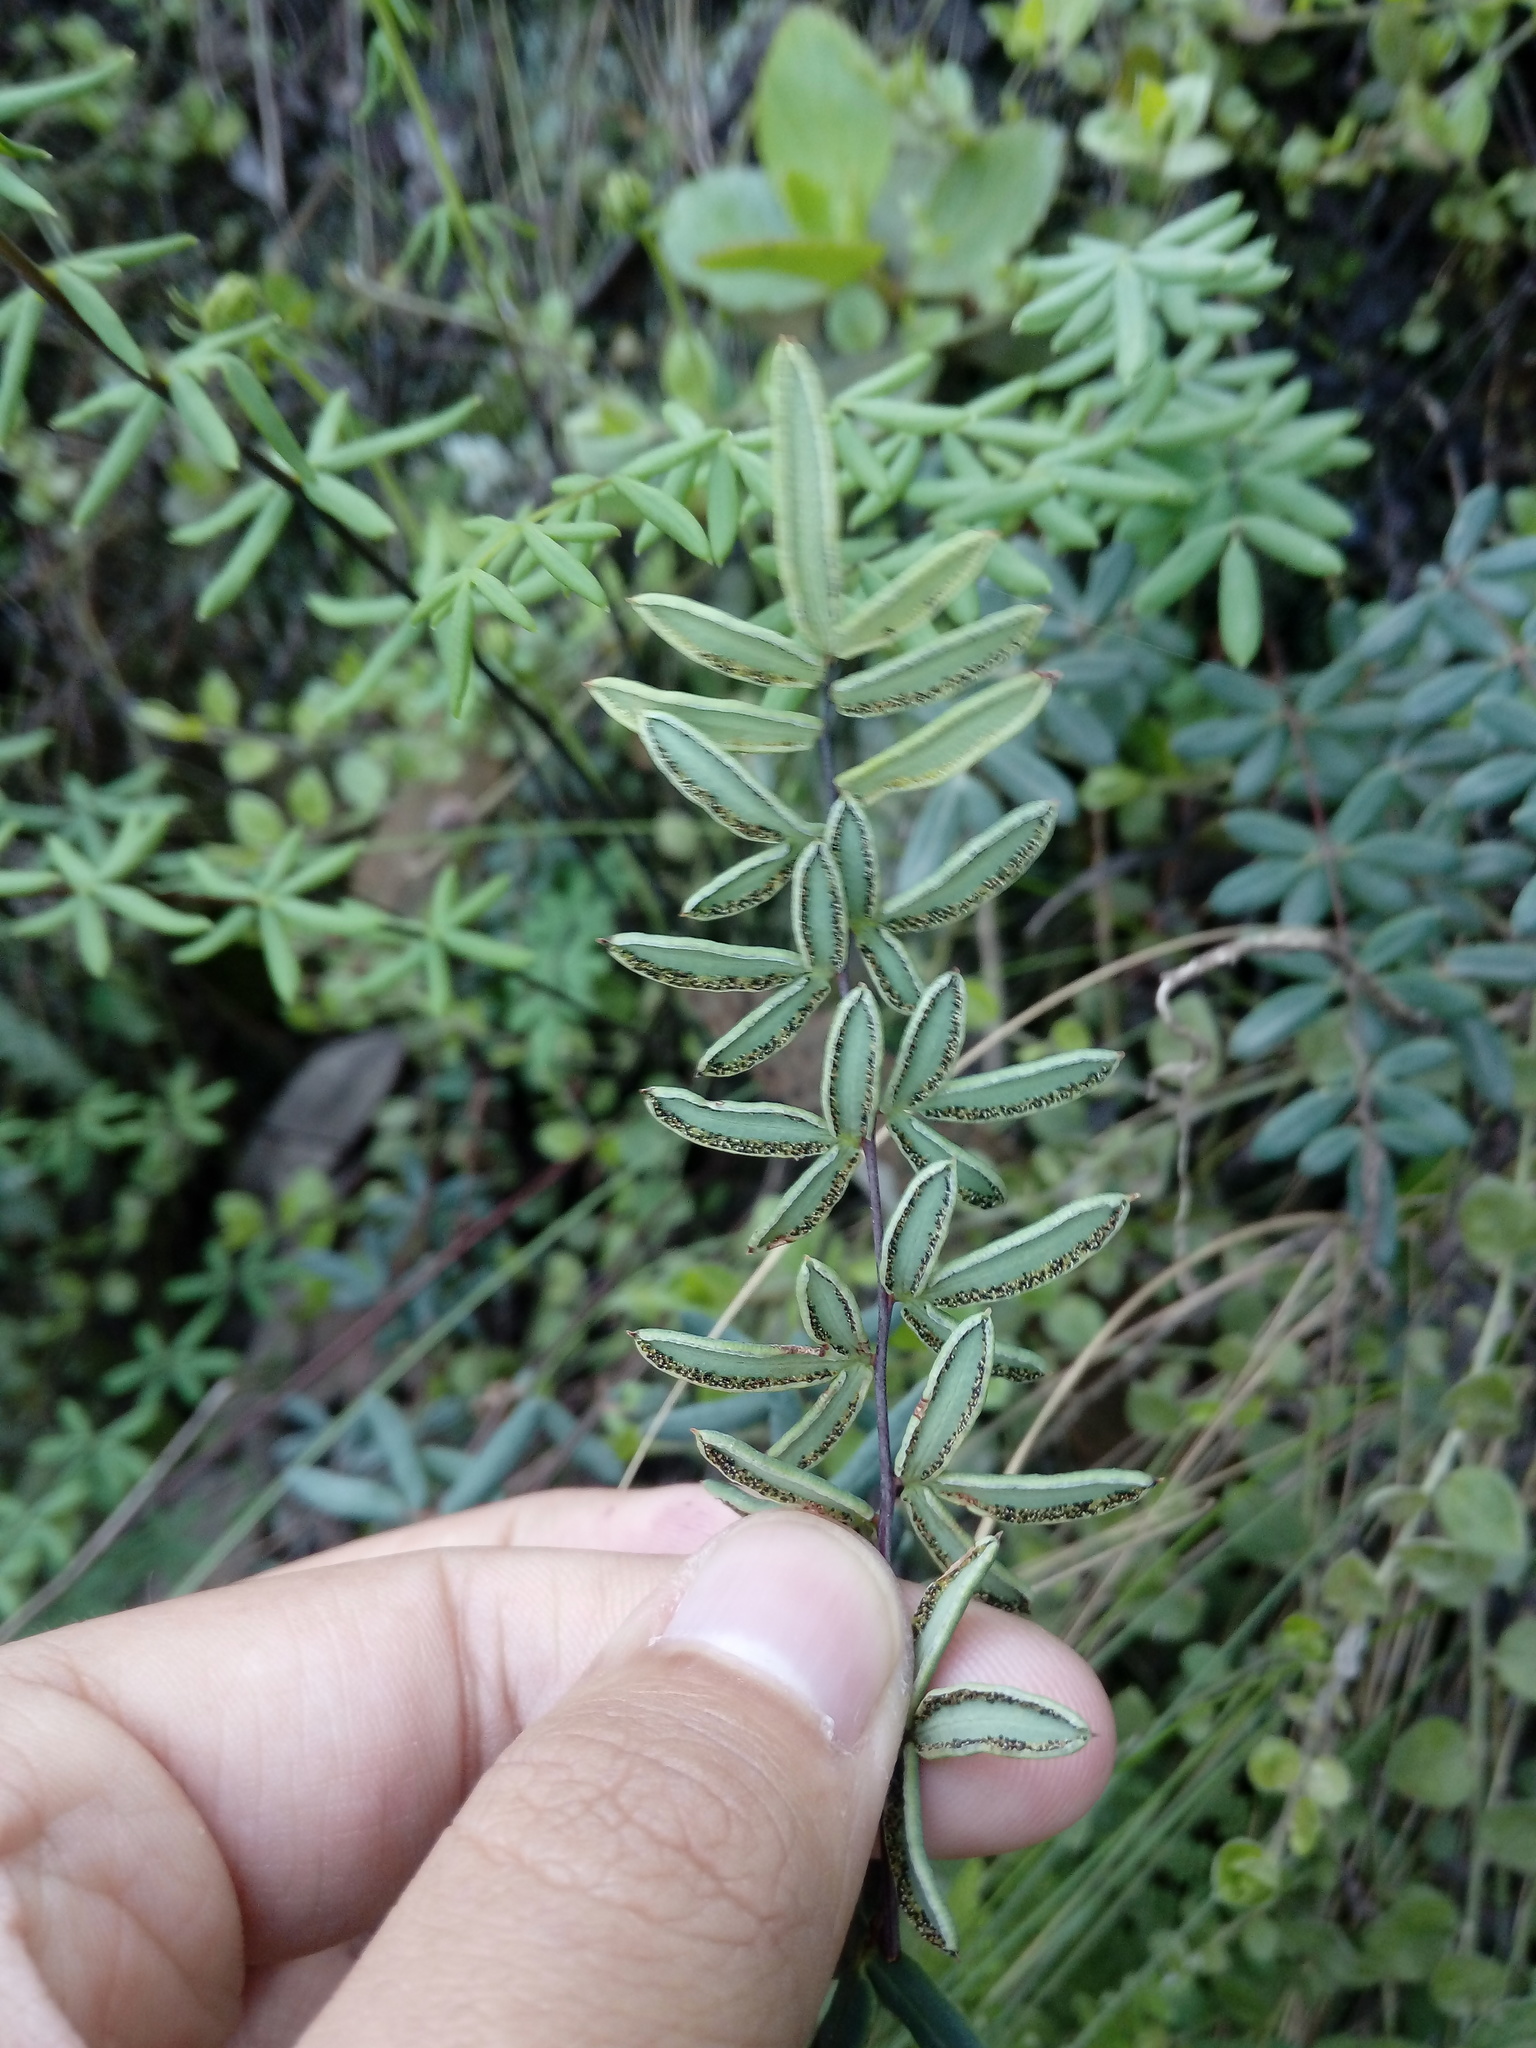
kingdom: Plantae
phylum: Tracheophyta
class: Polypodiopsida
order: Polypodiales
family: Pteridaceae
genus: Pellaea
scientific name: Pellaea ternifolia
